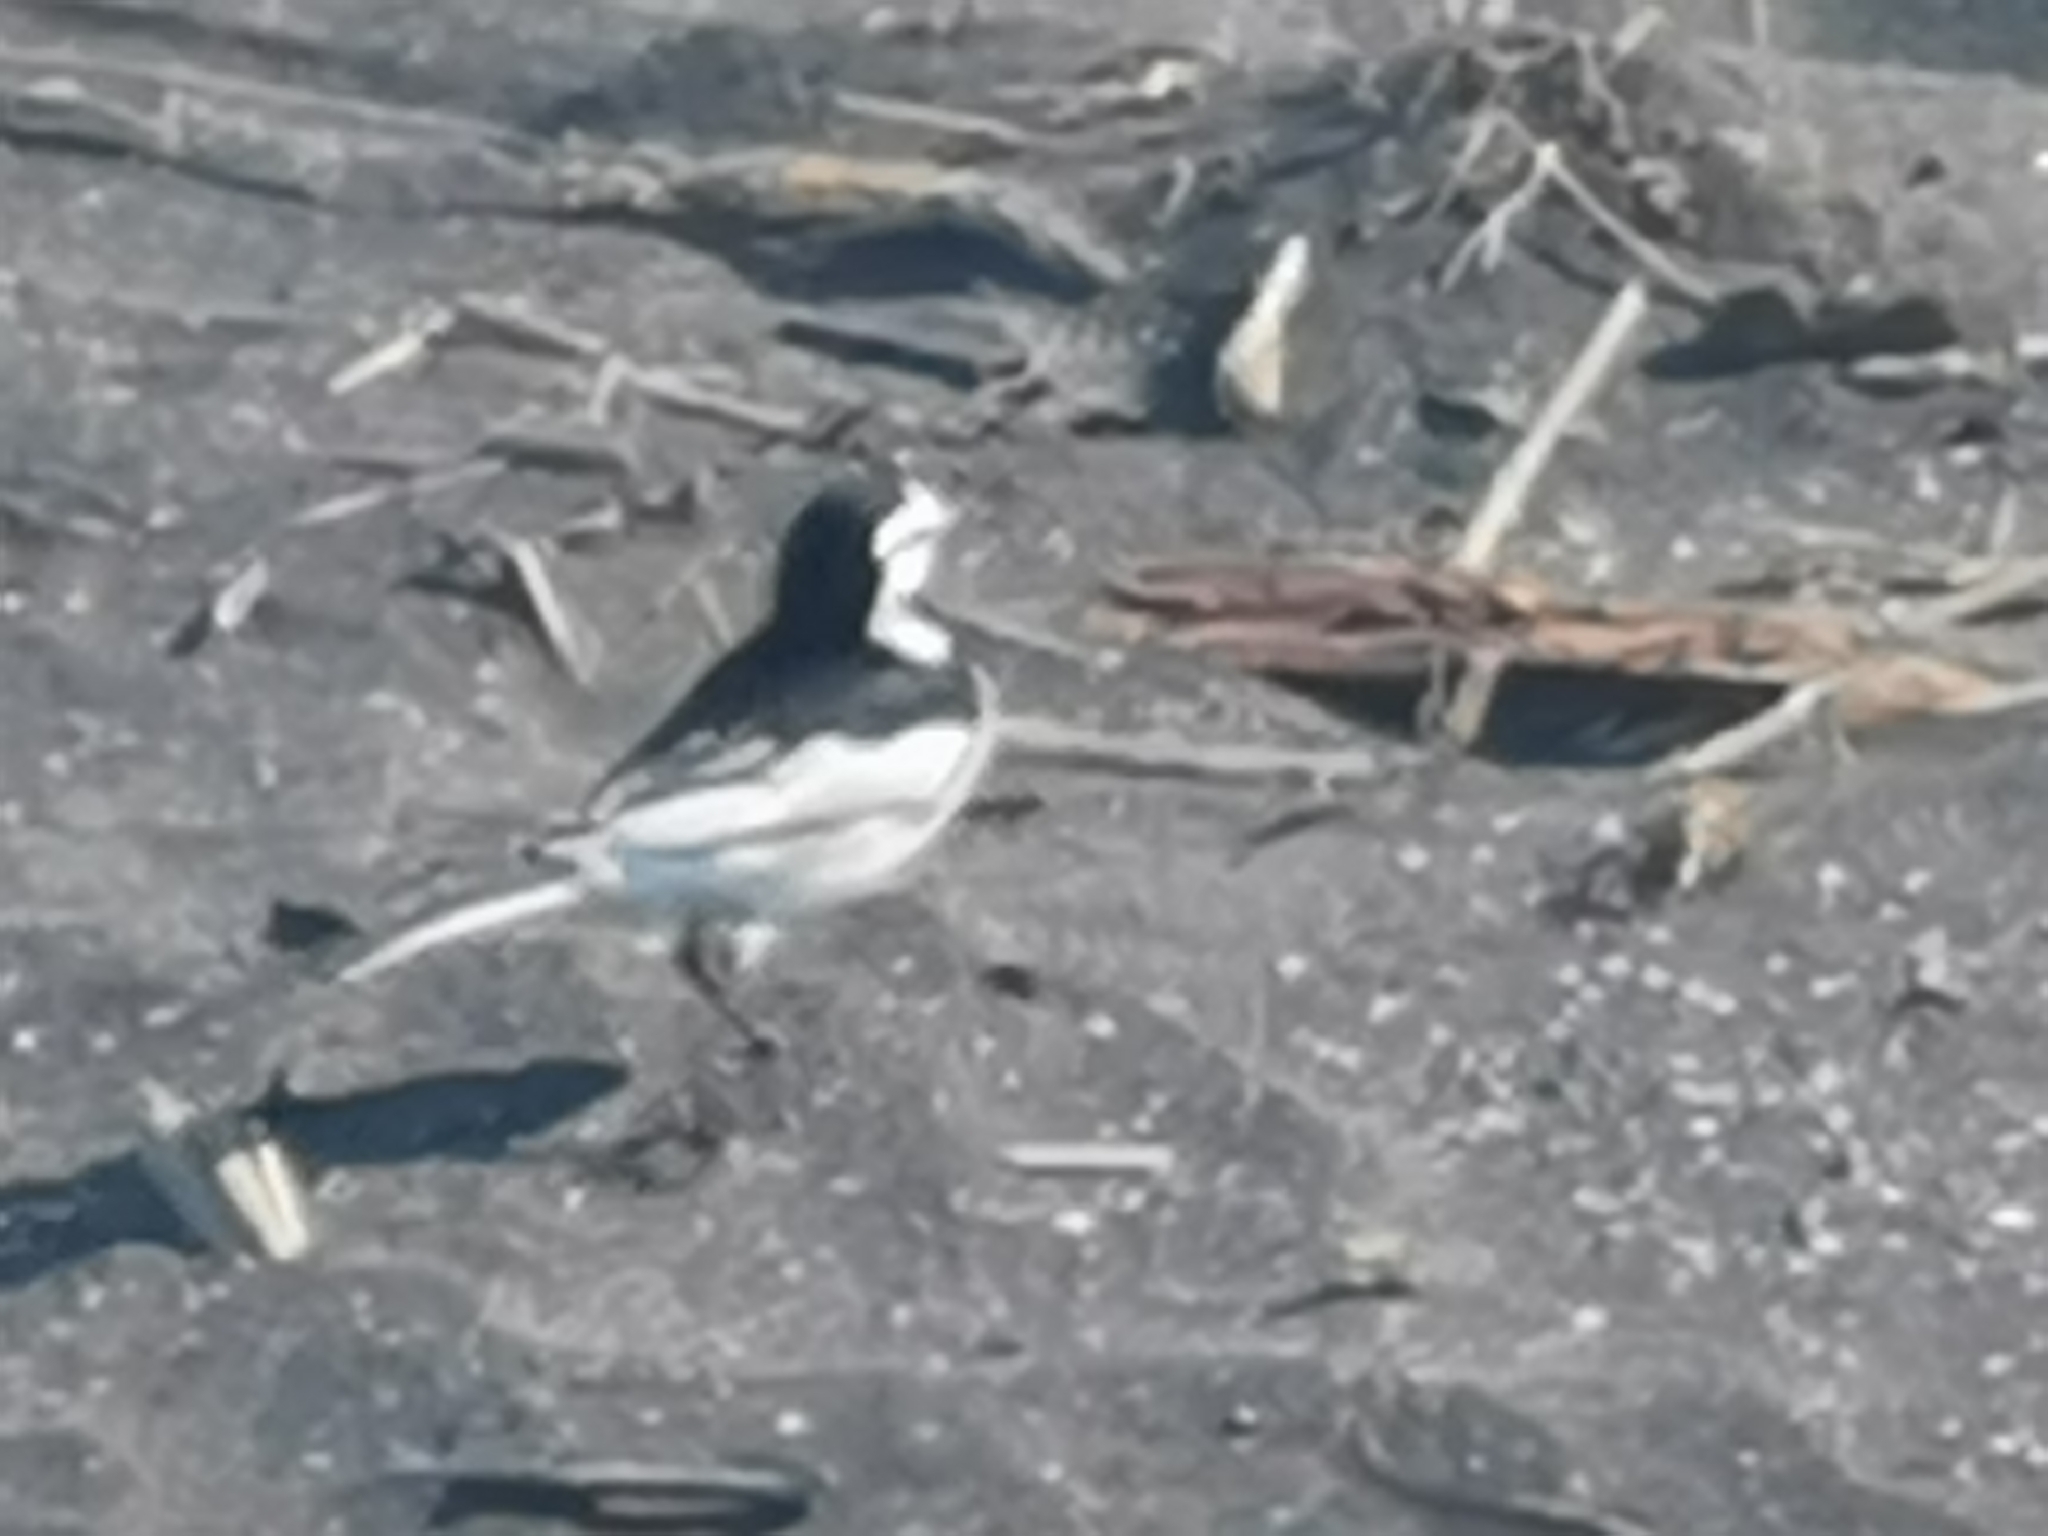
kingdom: Animalia
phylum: Chordata
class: Aves
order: Passeriformes
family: Motacillidae
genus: Motacilla
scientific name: Motacilla alba
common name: White wagtail
